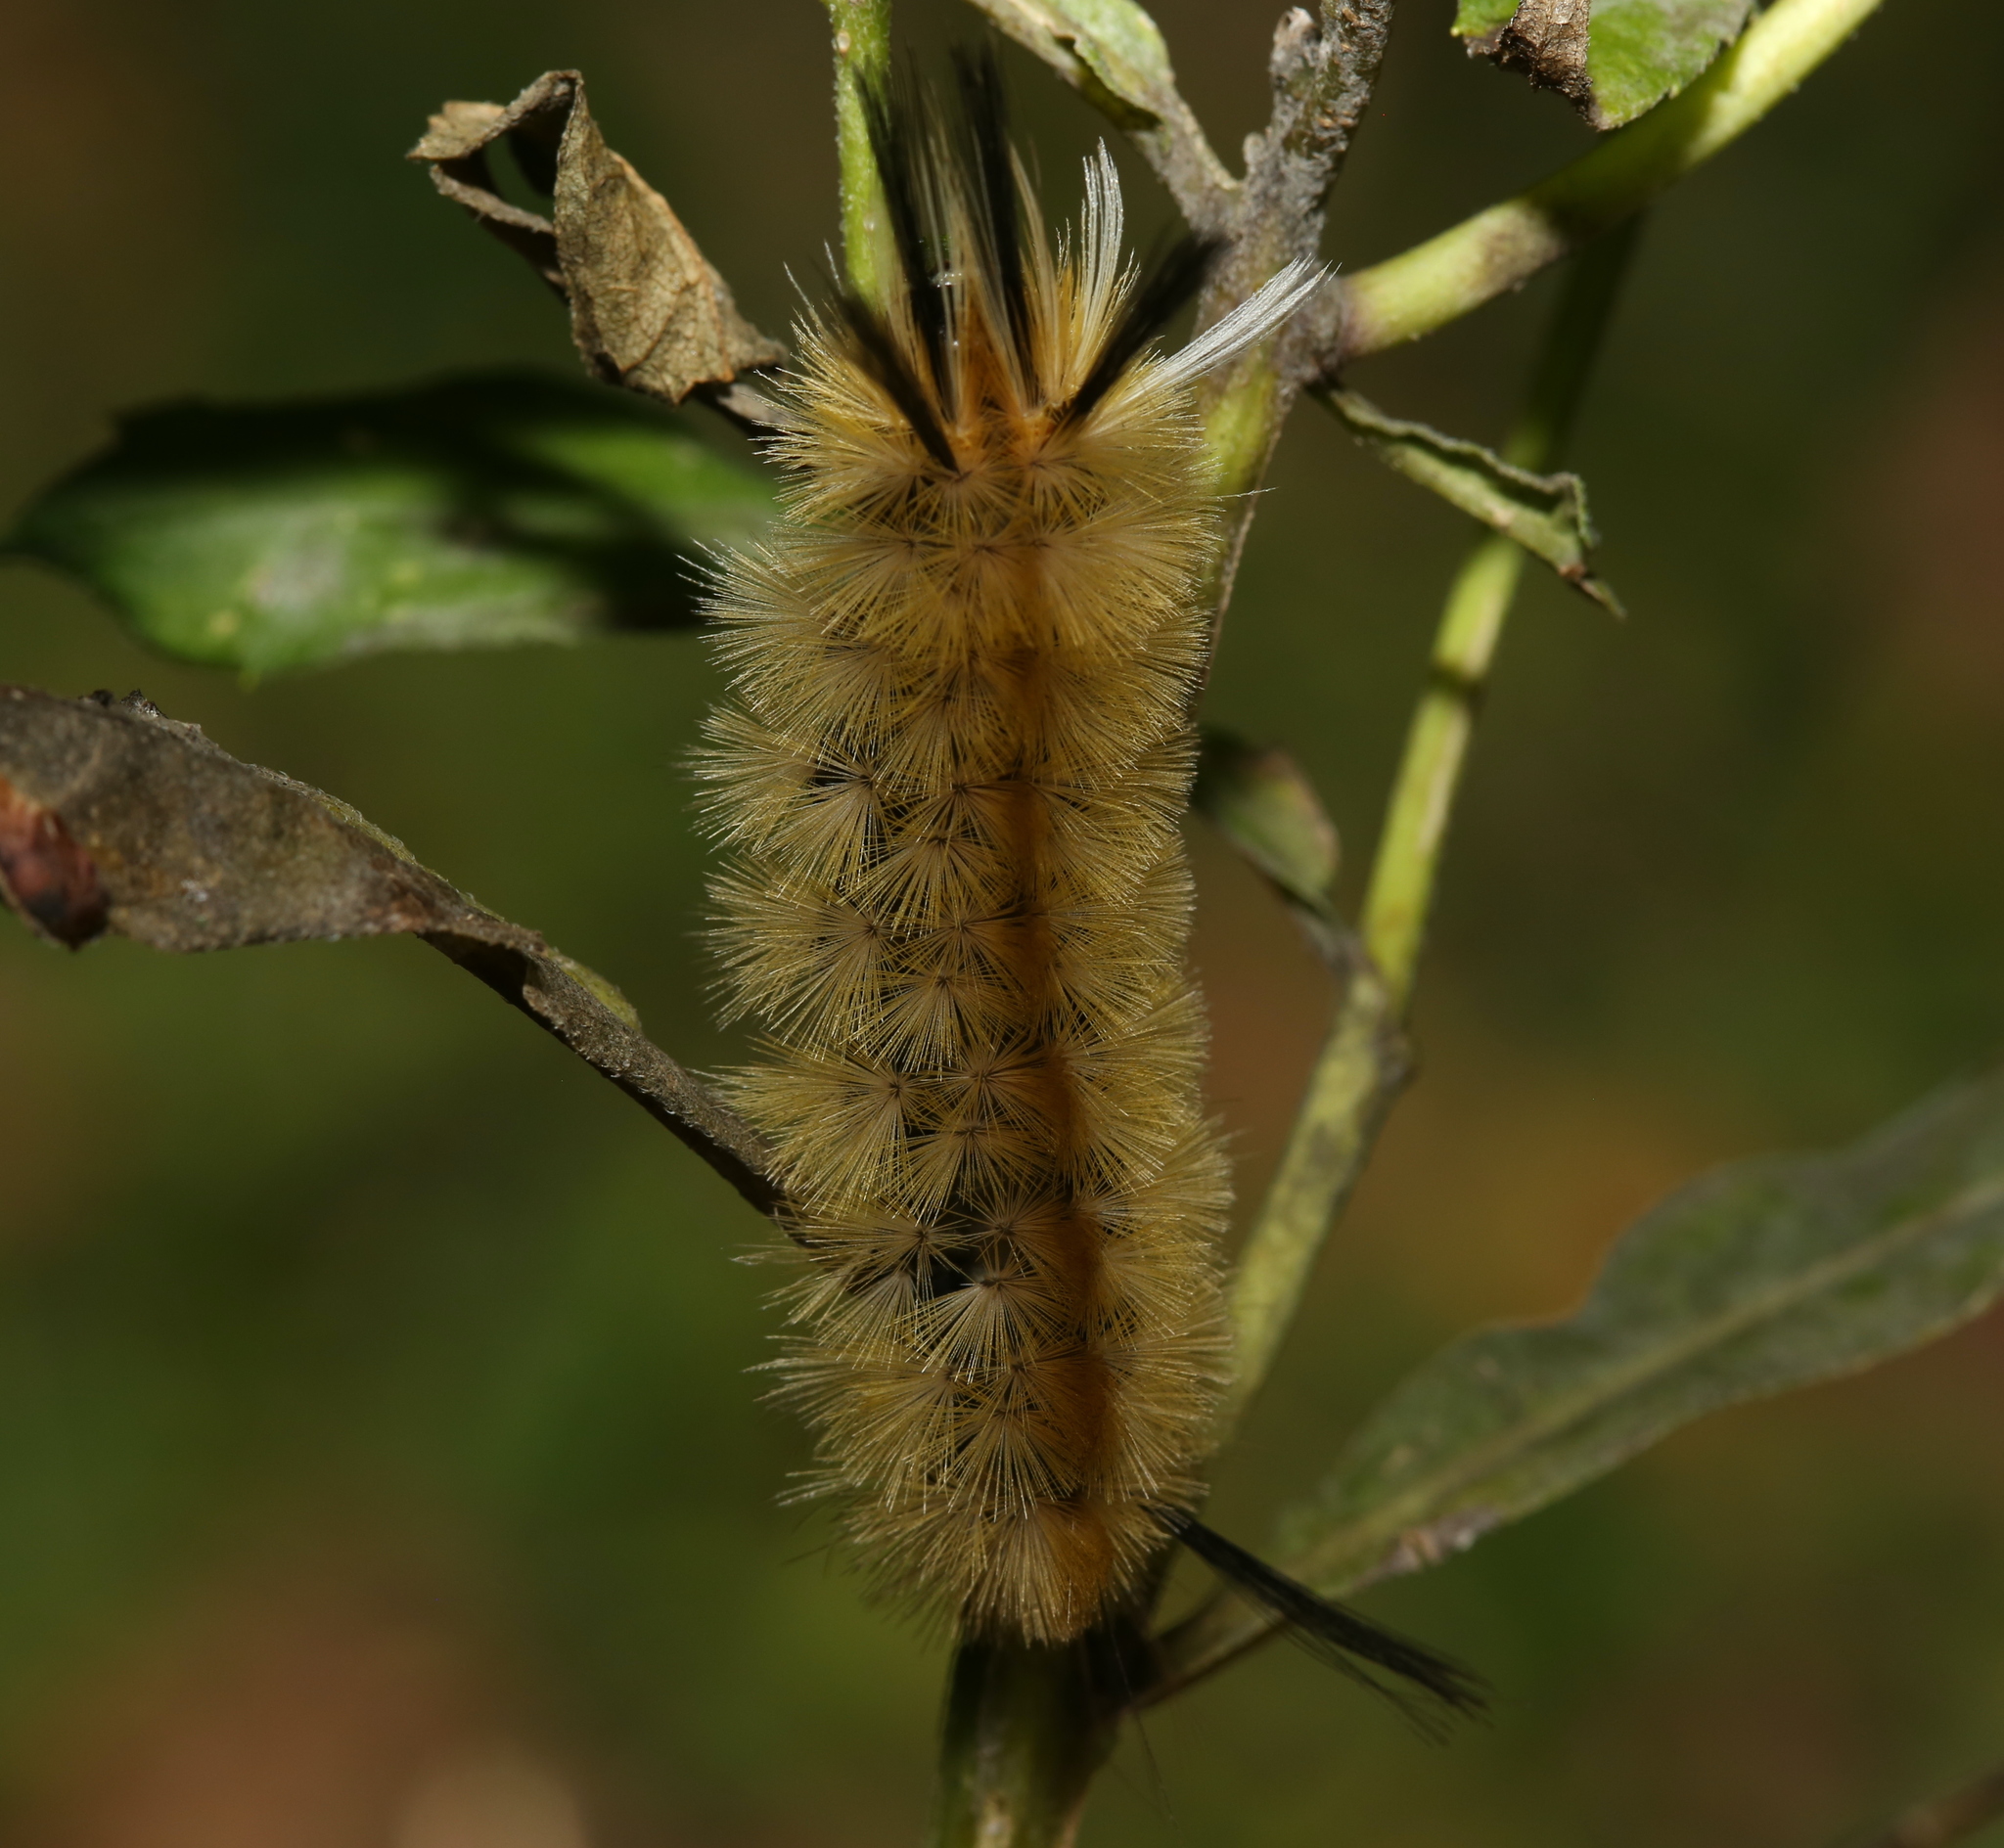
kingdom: Animalia
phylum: Arthropoda
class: Insecta
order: Lepidoptera
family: Erebidae
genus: Halysidota
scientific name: Halysidota tessellaris
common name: Banded tussock moth
